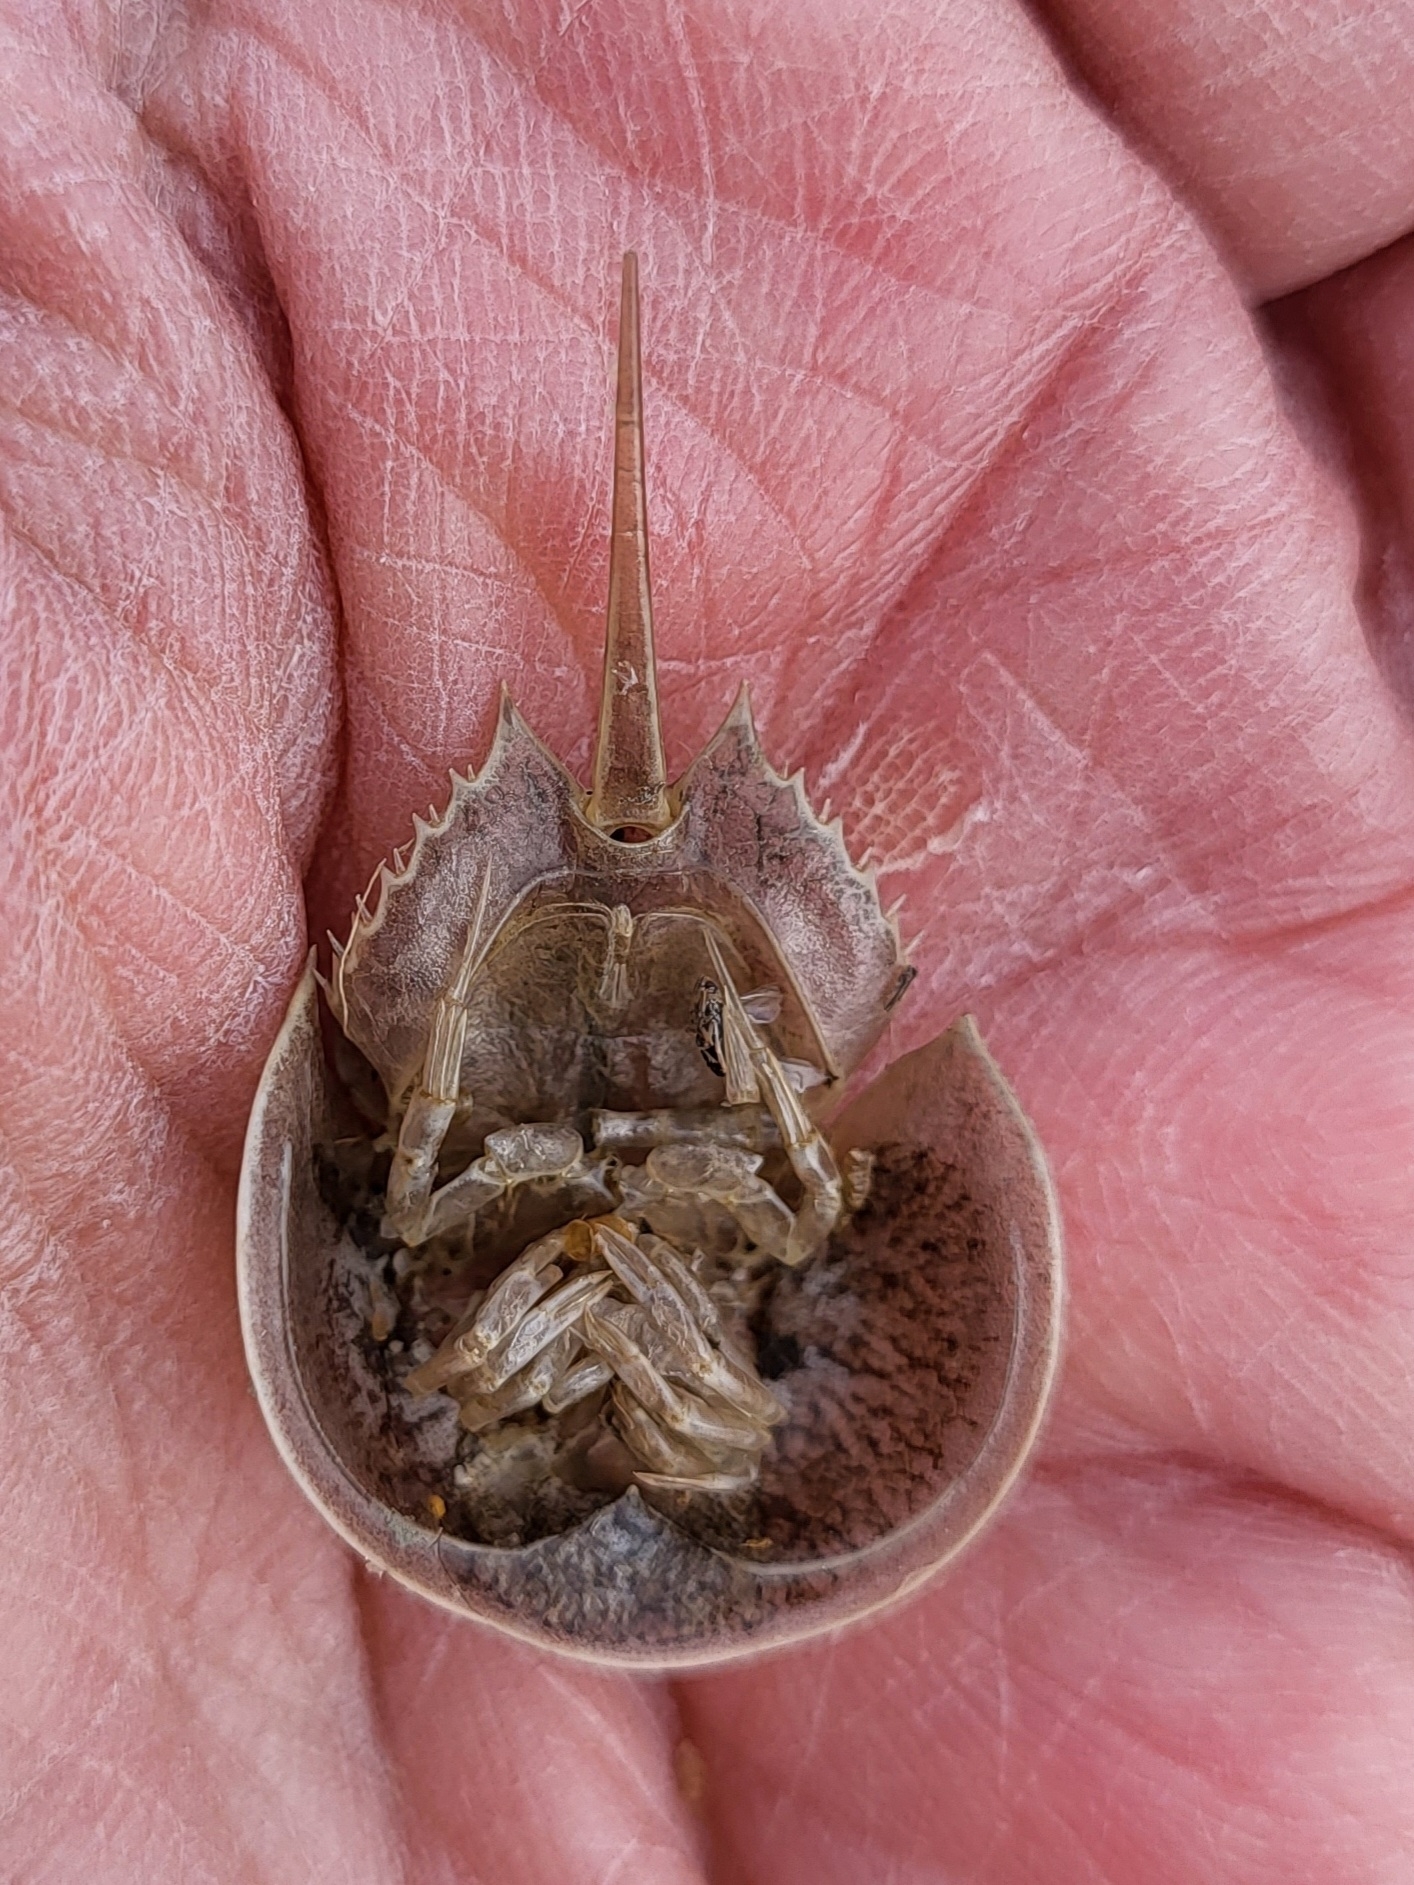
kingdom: Animalia
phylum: Arthropoda
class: Merostomata
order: Xiphosurida
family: Limulidae
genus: Limulus
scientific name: Limulus polyphemus
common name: Horseshoe crab
